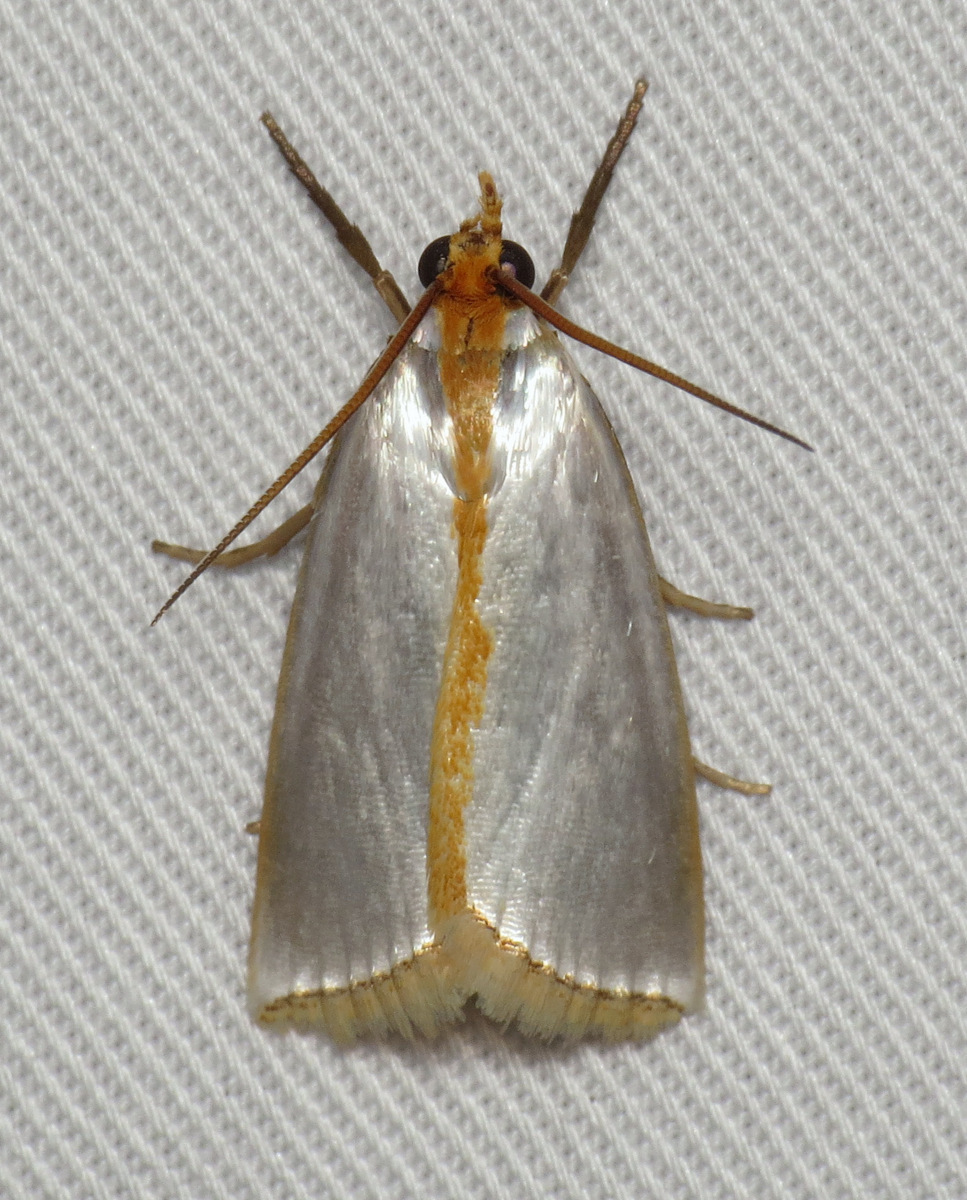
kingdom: Animalia
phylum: Arthropoda
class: Insecta
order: Lepidoptera
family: Crambidae
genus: Argyria
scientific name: Argyria
